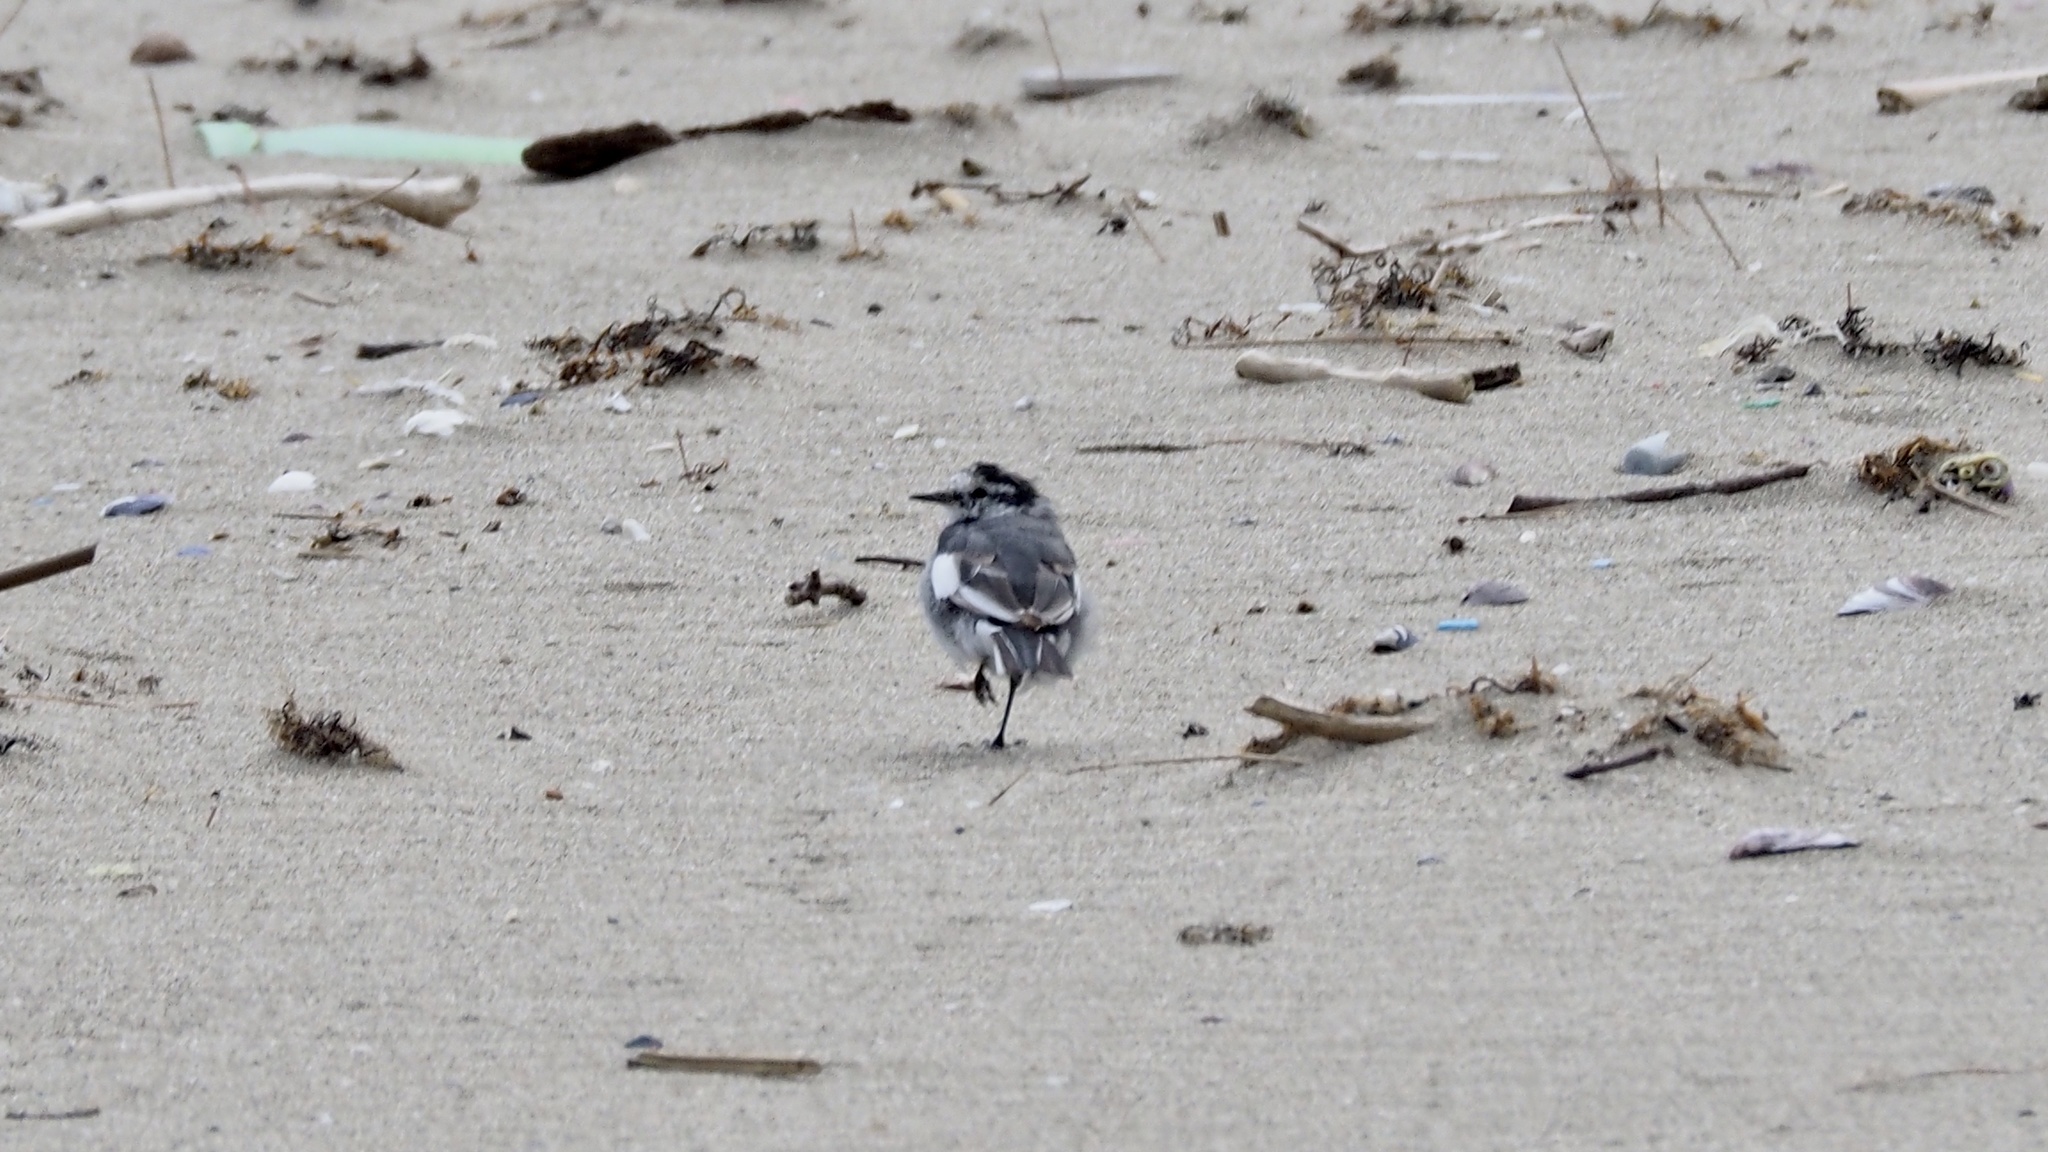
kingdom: Animalia
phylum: Chordata
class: Aves
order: Passeriformes
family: Motacillidae
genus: Motacilla
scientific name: Motacilla alba
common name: White wagtail
